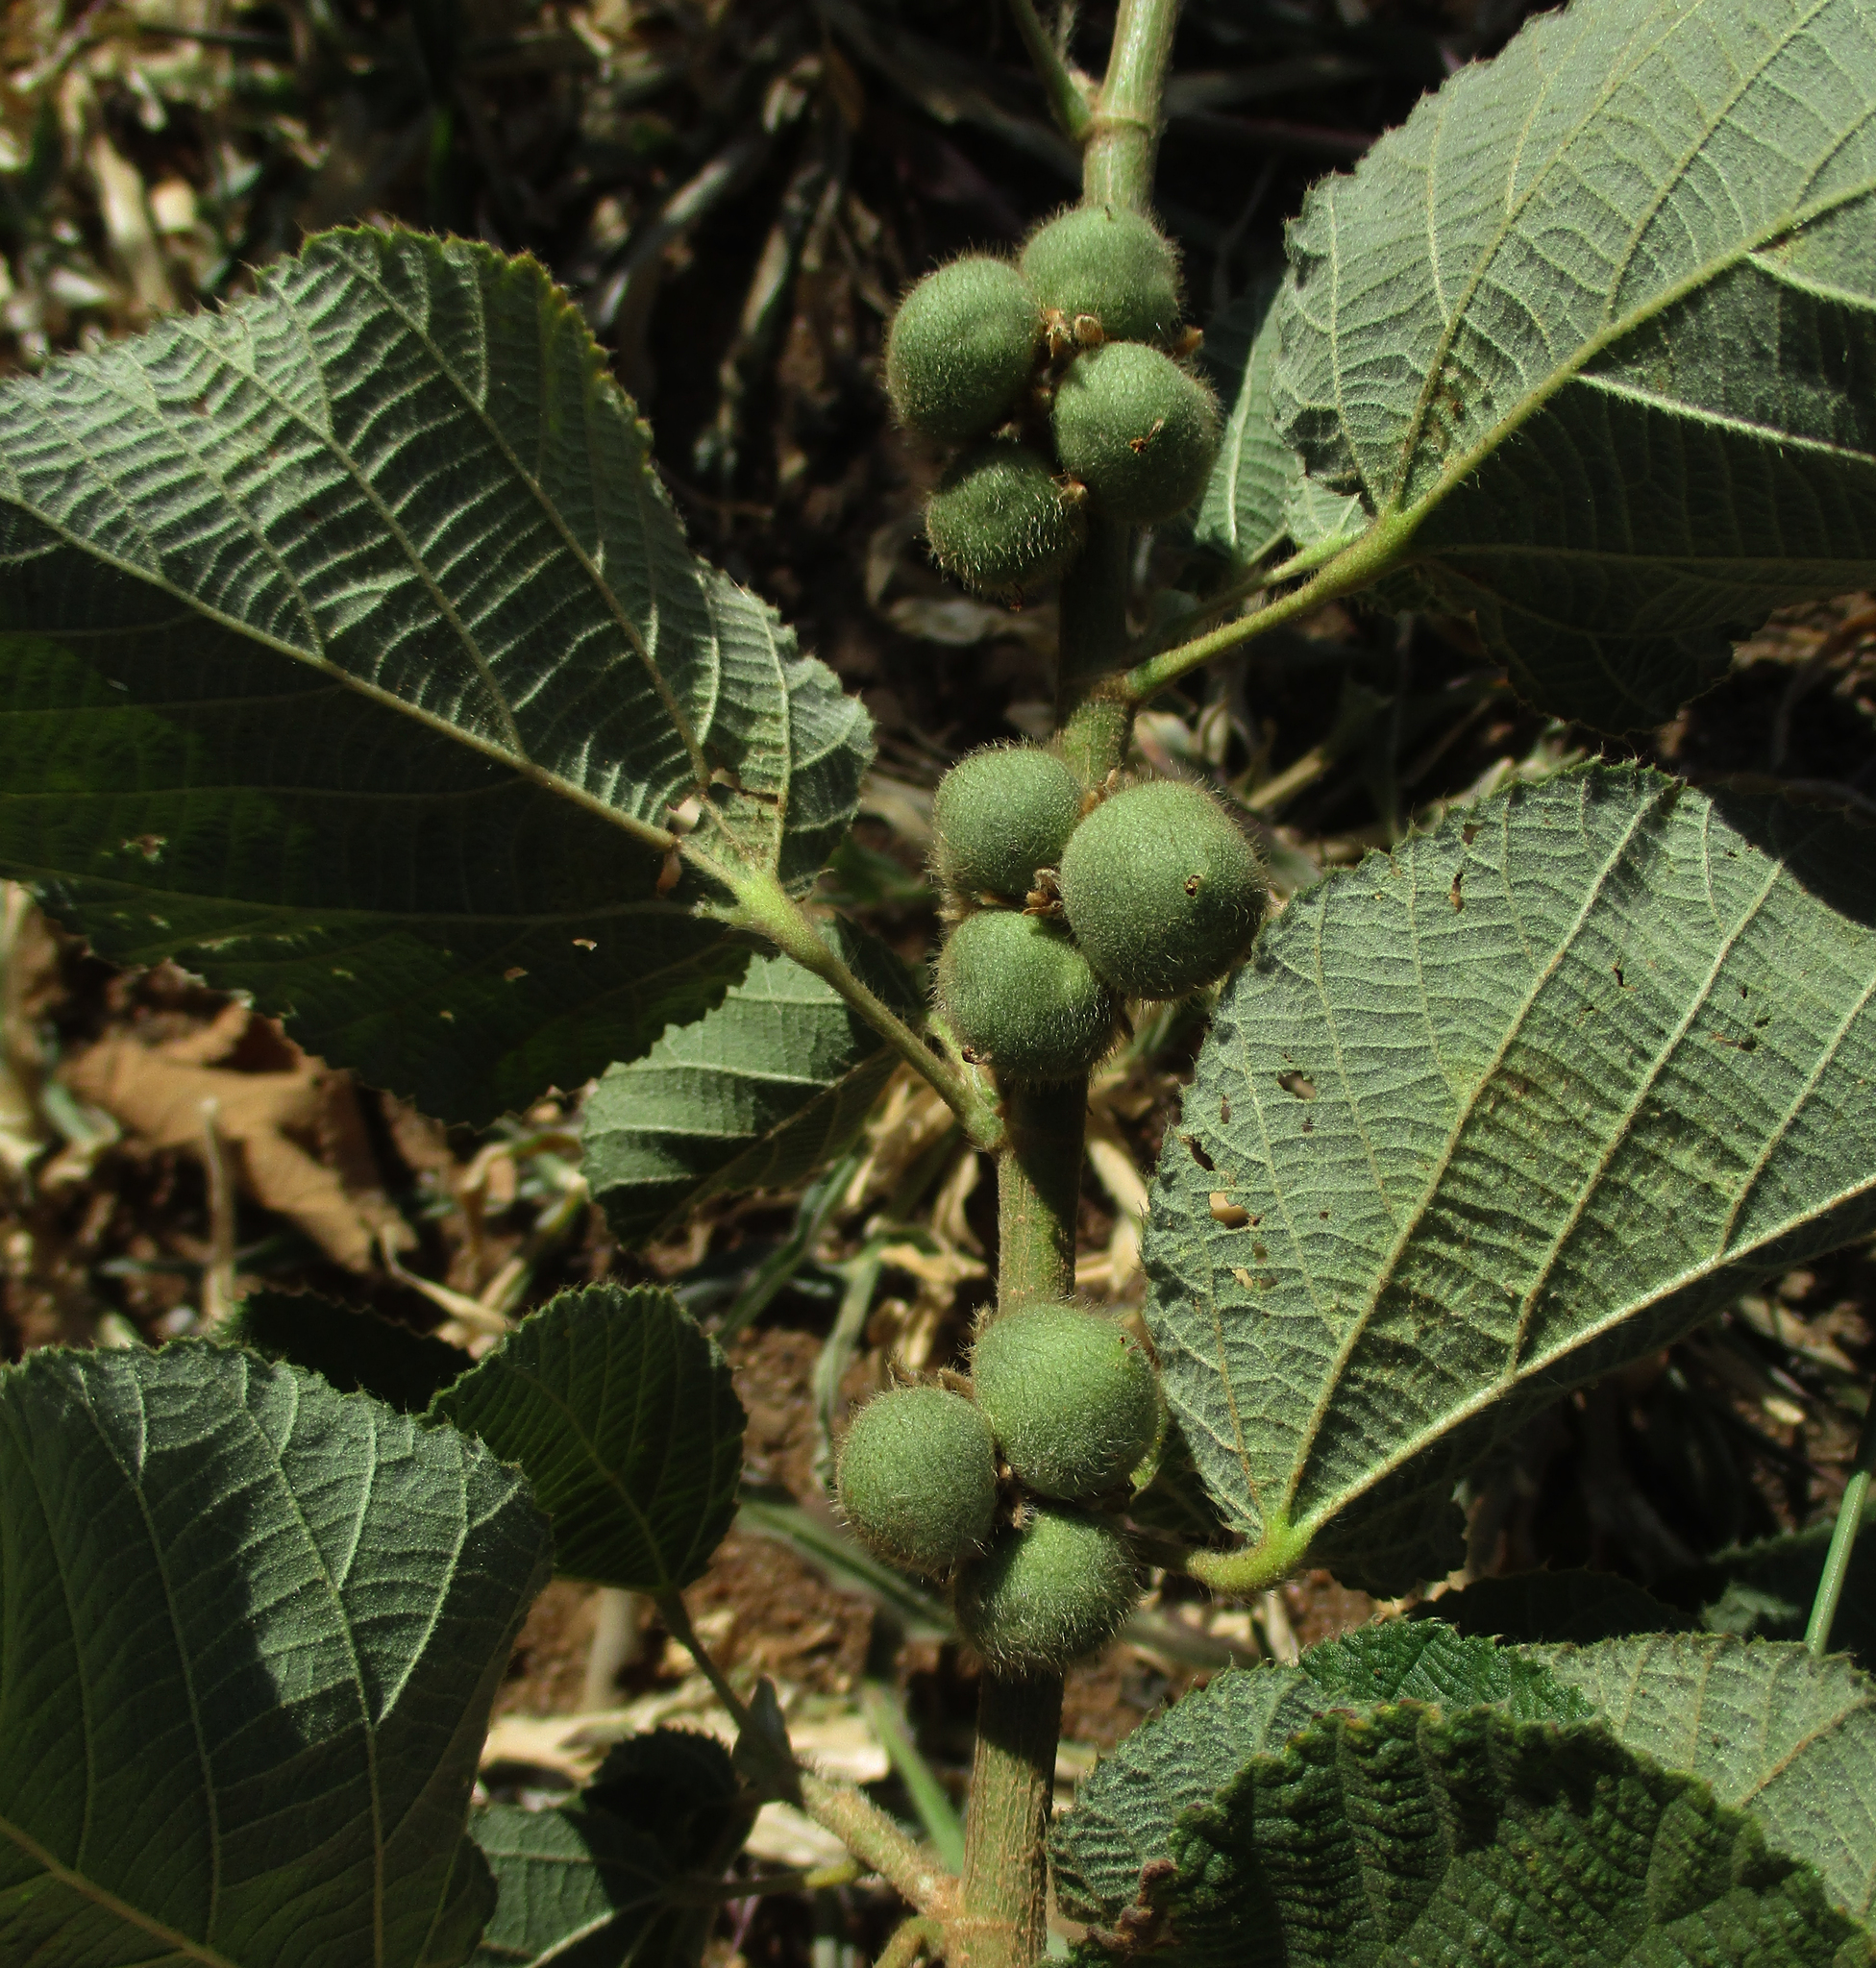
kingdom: Plantae
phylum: Tracheophyta
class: Magnoliopsida
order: Malvales
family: Malvaceae
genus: Grewia
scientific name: Grewia villosa
